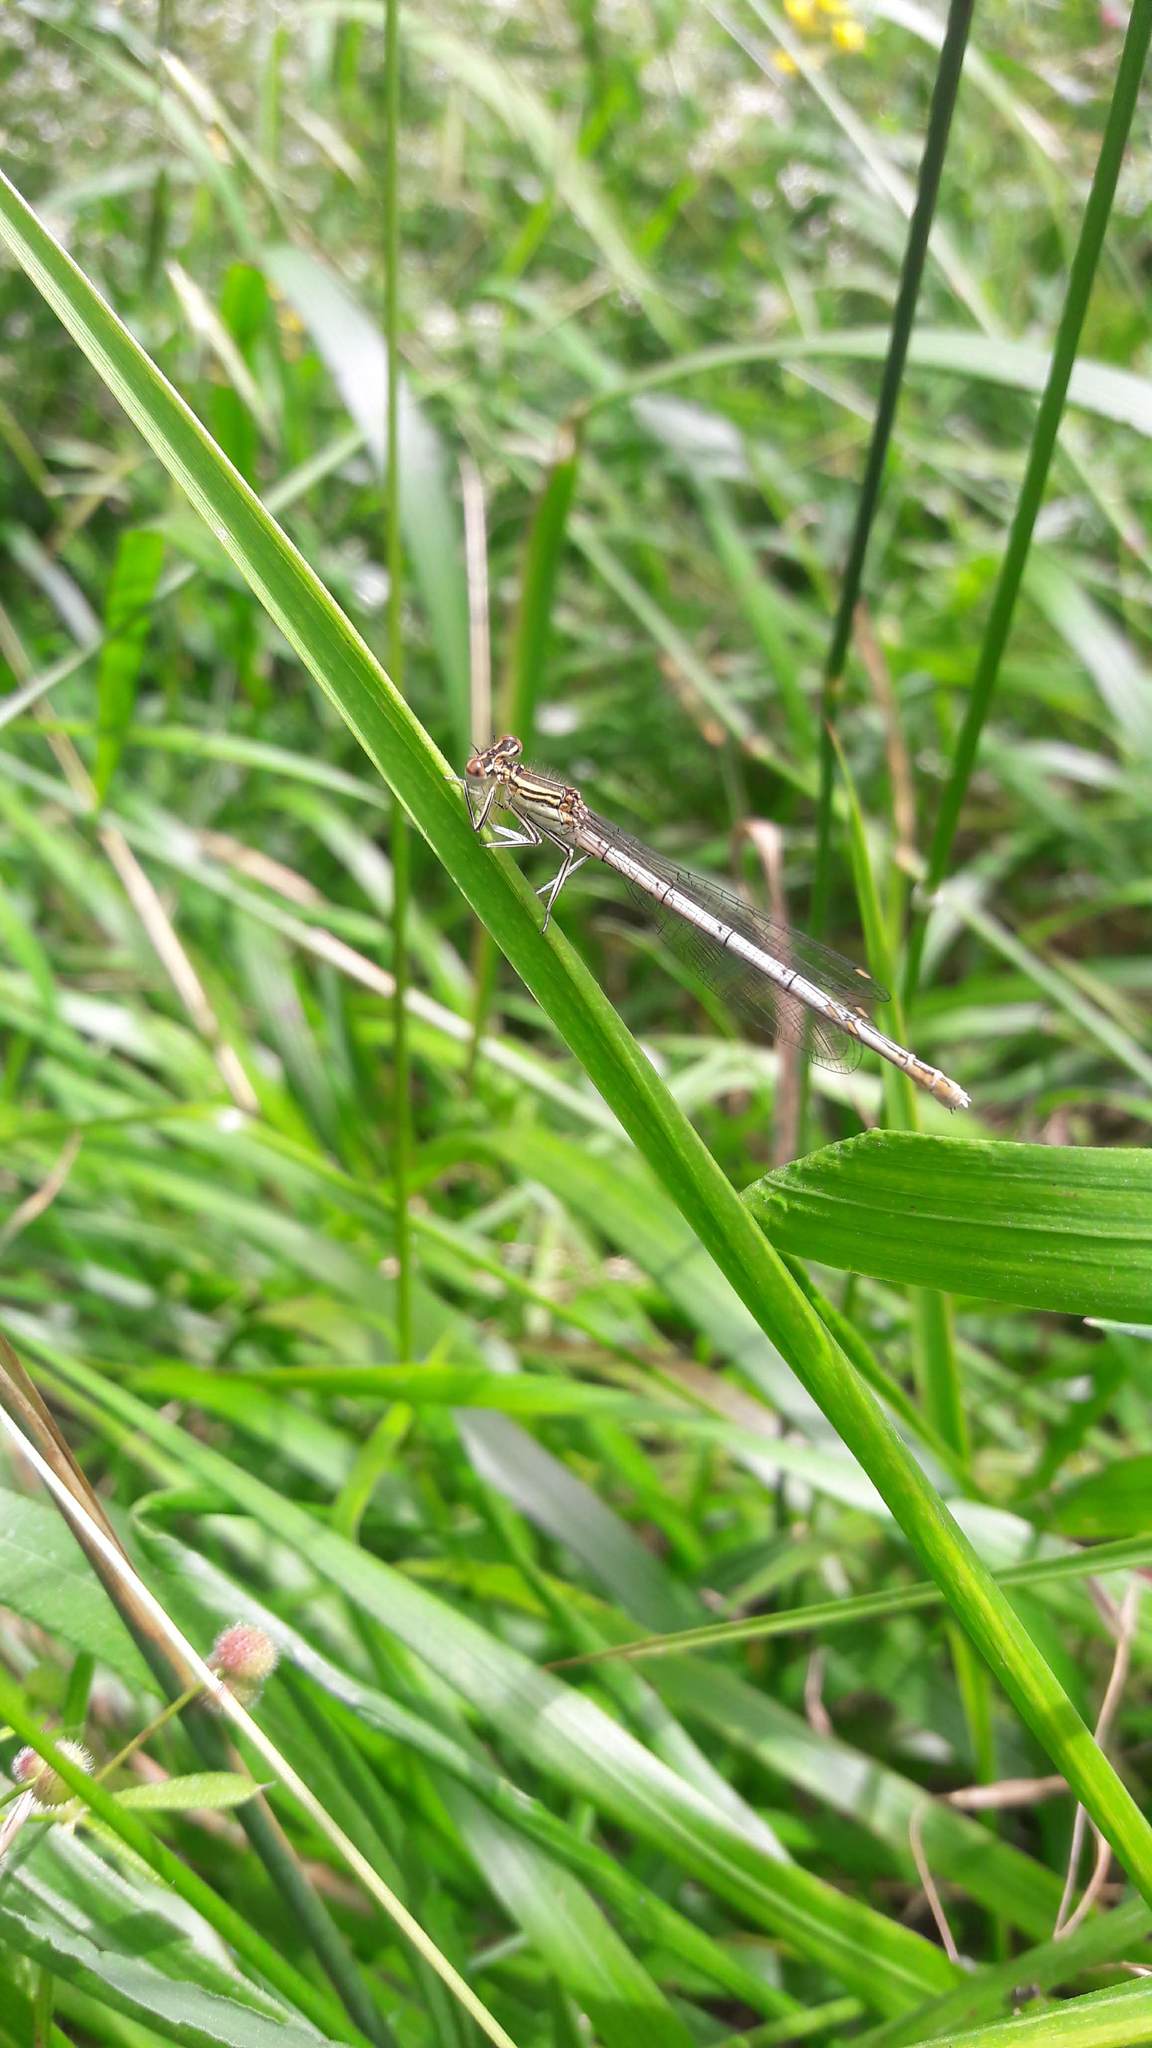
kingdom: Animalia
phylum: Arthropoda
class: Insecta
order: Odonata
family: Platycnemididae
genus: Platycnemis
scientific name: Platycnemis pennipes
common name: White-legged damselfly
